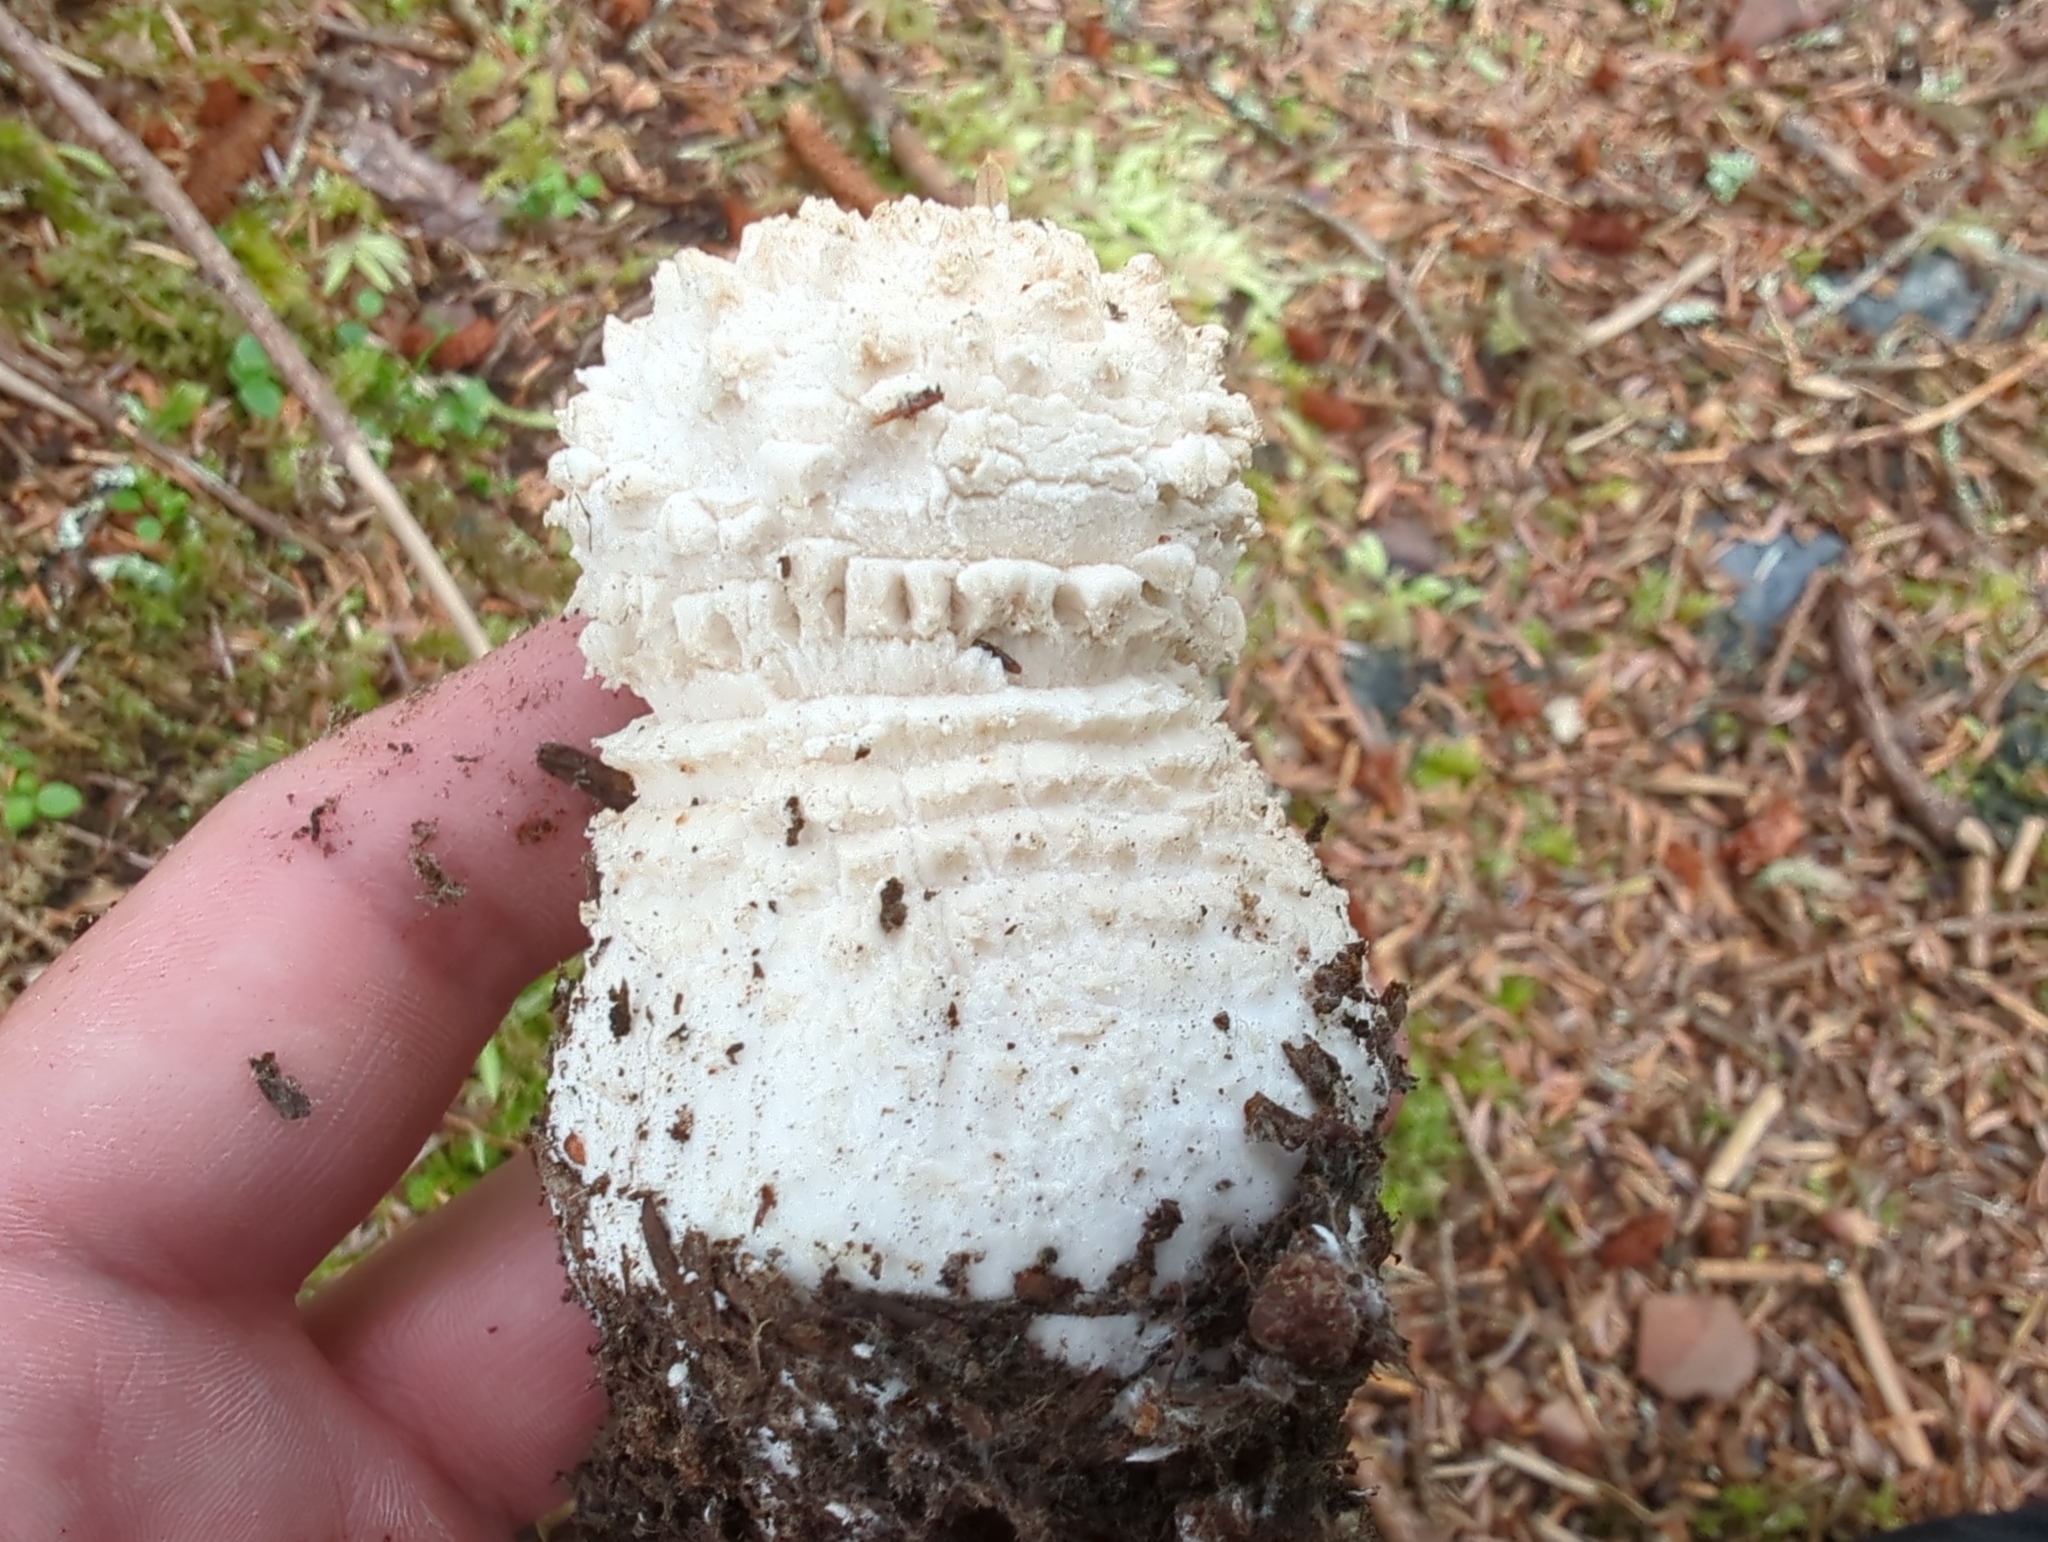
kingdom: Fungi
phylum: Basidiomycota
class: Agaricomycetes
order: Agaricales
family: Amanitaceae
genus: Amanita
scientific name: Amanita muscaria
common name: Fly agaric
